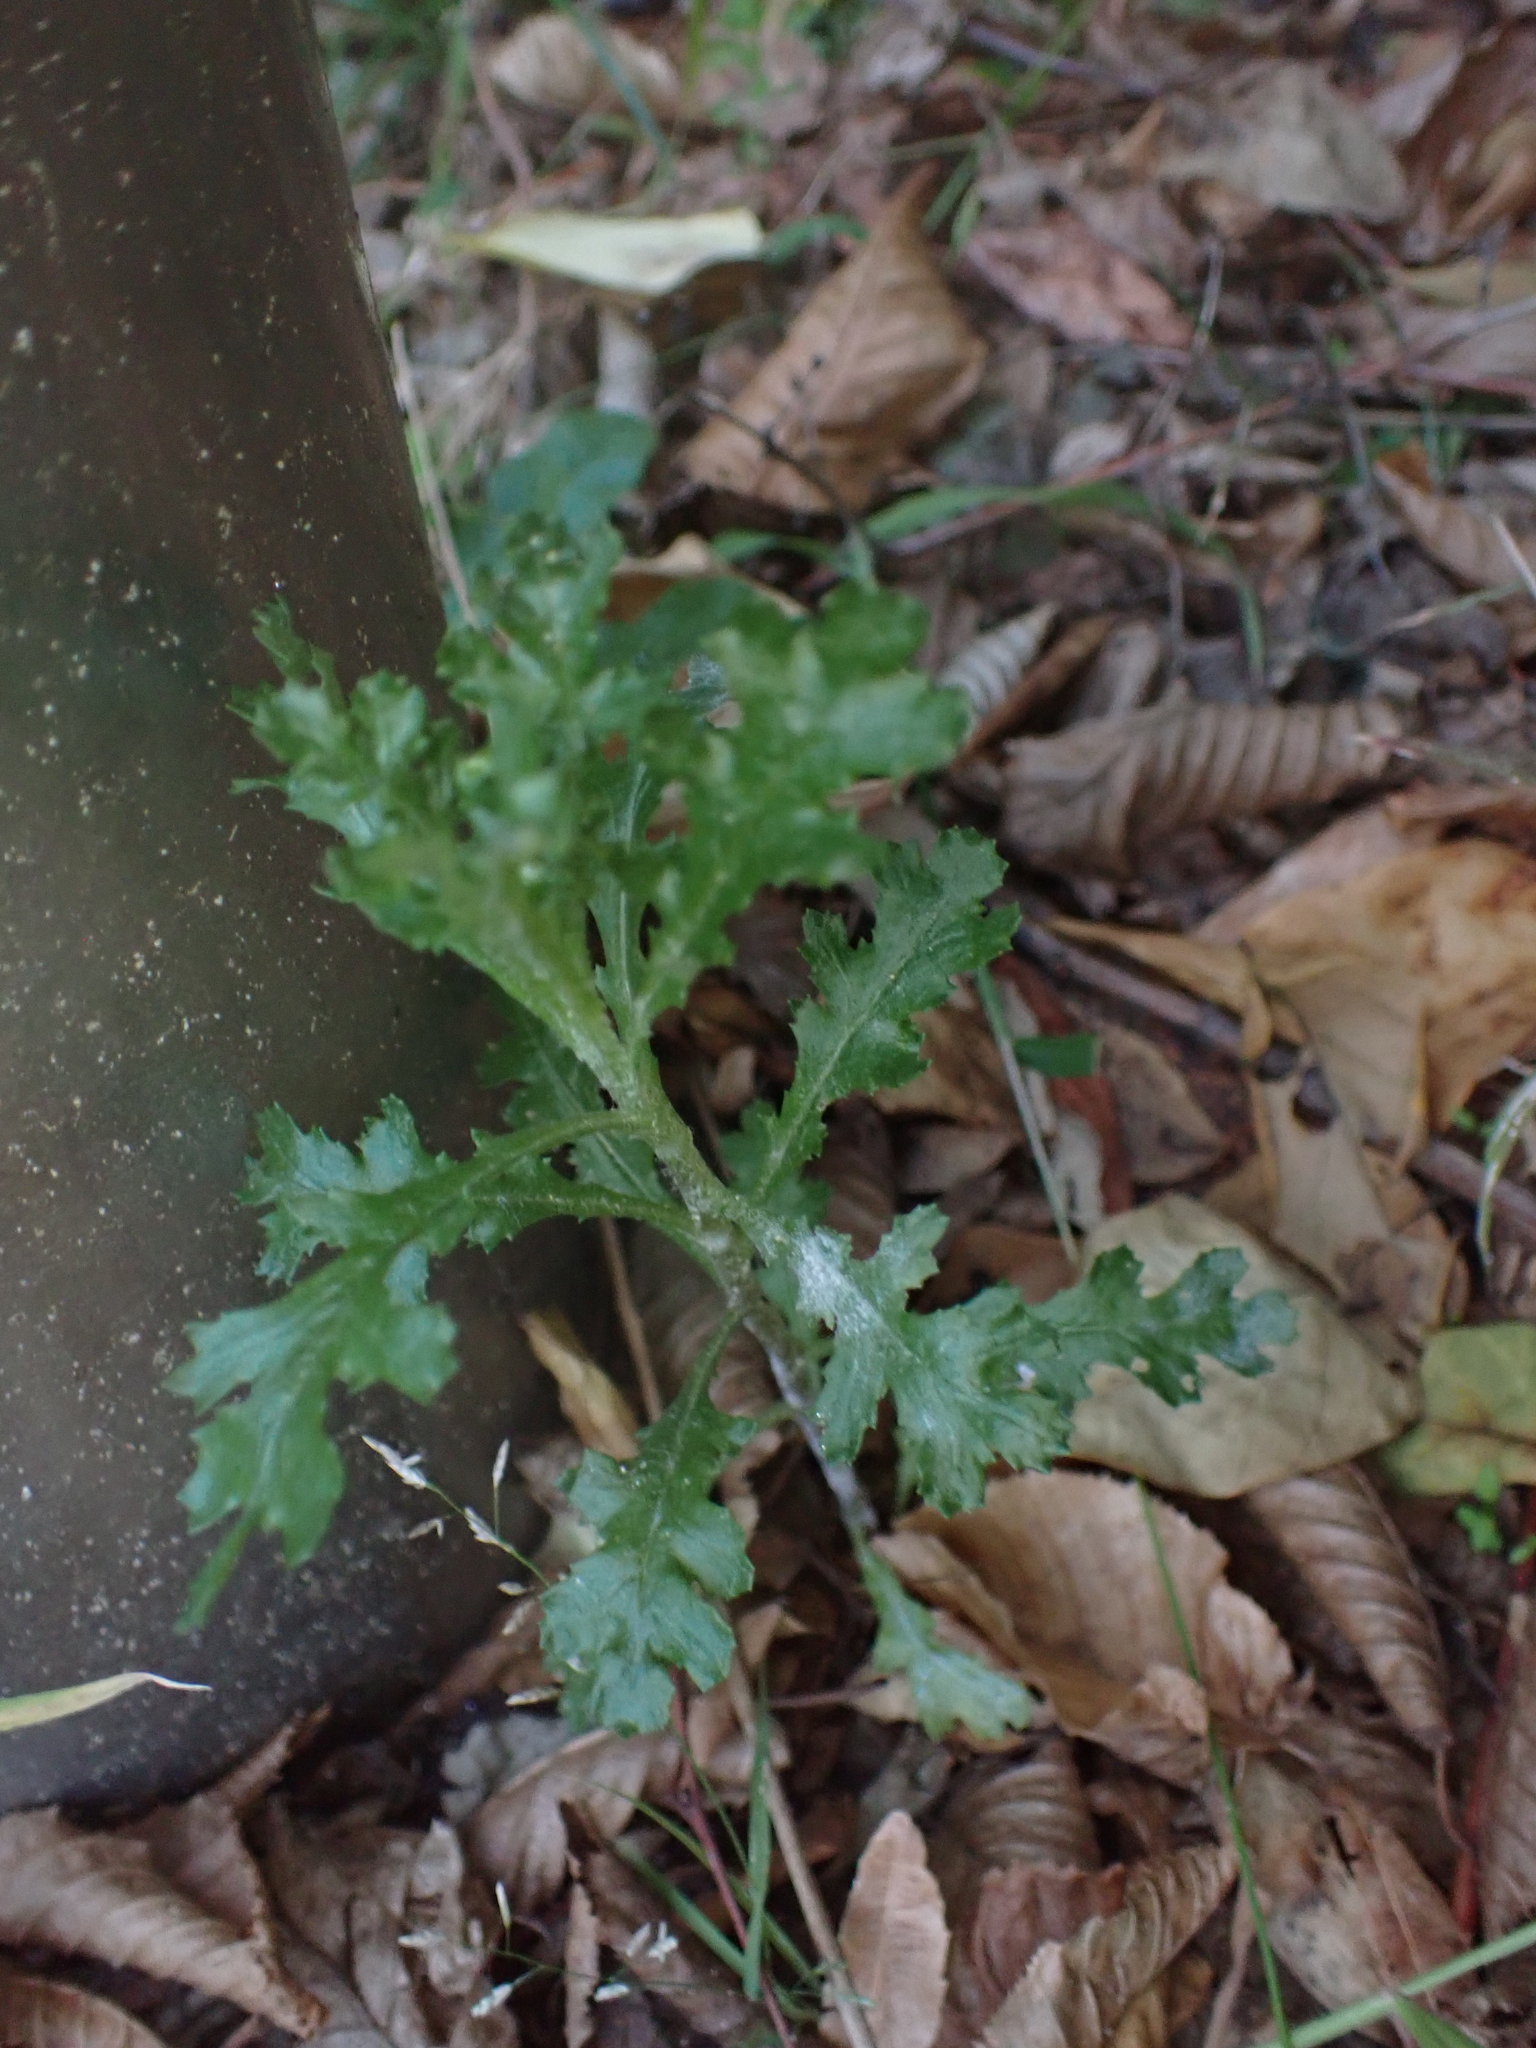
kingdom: Plantae
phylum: Tracheophyta
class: Magnoliopsida
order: Asterales
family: Asteraceae
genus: Senecio
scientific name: Senecio vulgaris
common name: Old-man-in-the-spring
